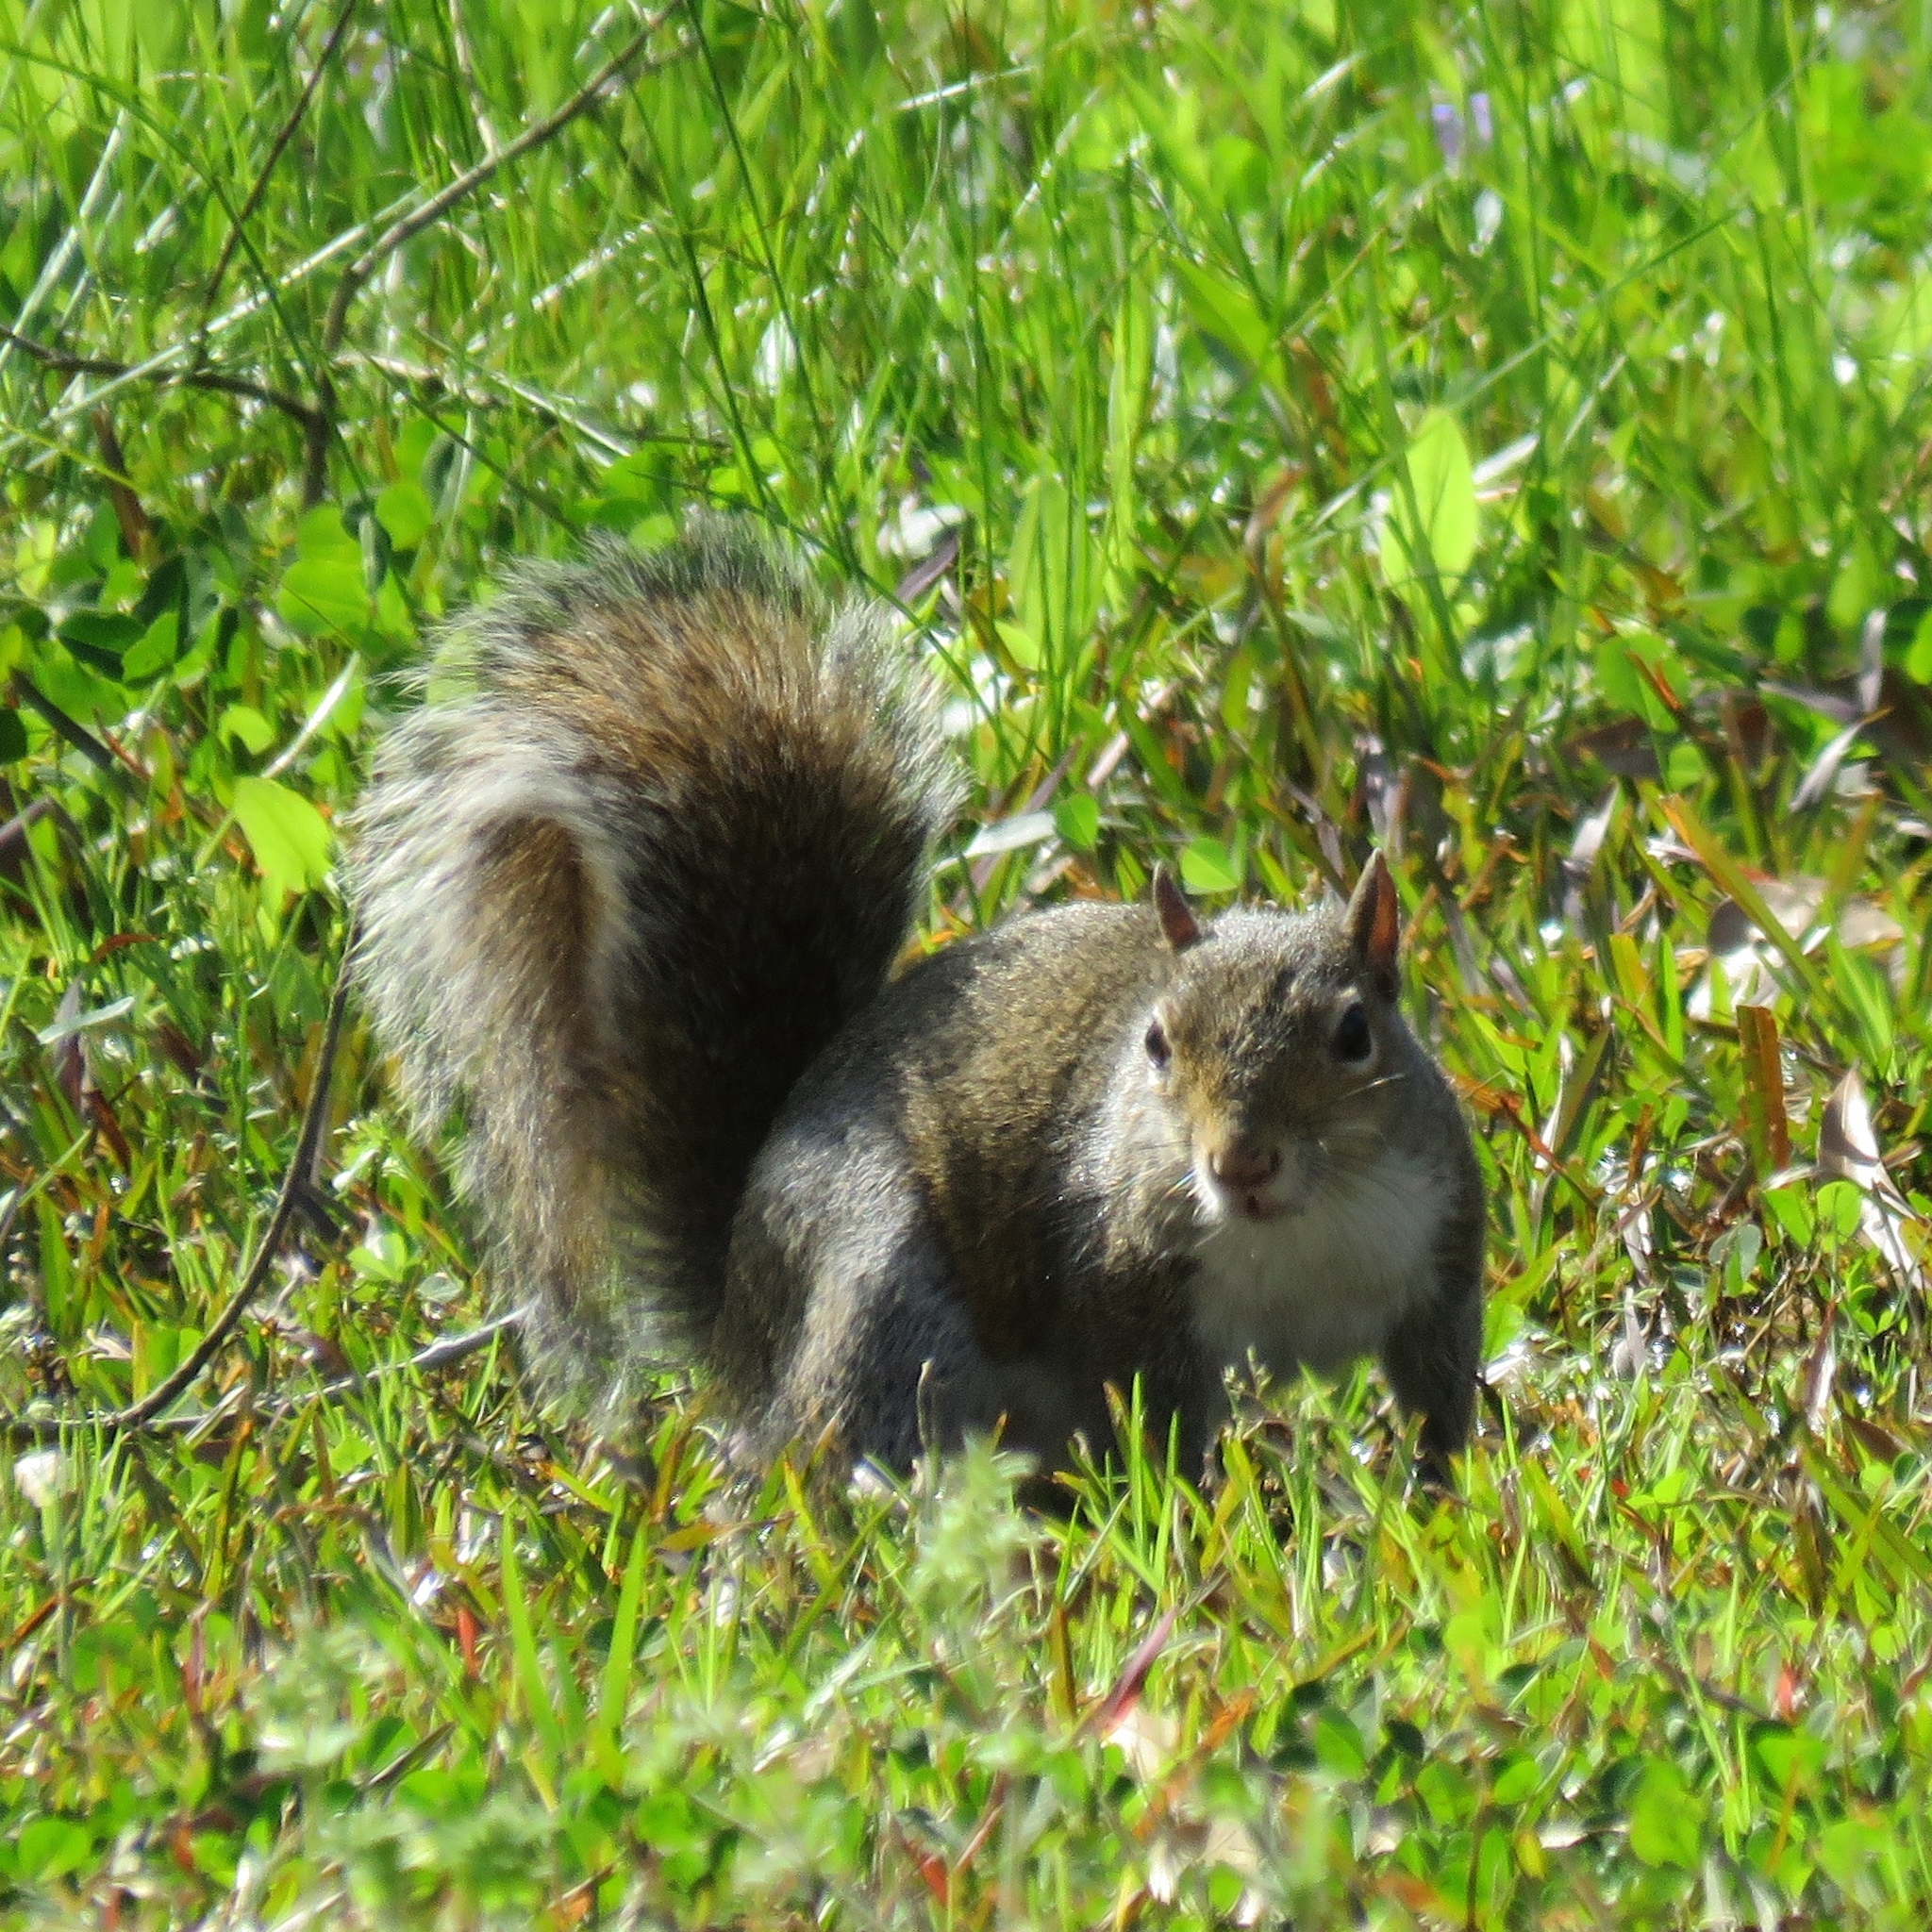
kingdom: Animalia
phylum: Chordata
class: Mammalia
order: Rodentia
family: Sciuridae
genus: Sciurus
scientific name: Sciurus carolinensis
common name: Eastern gray squirrel
